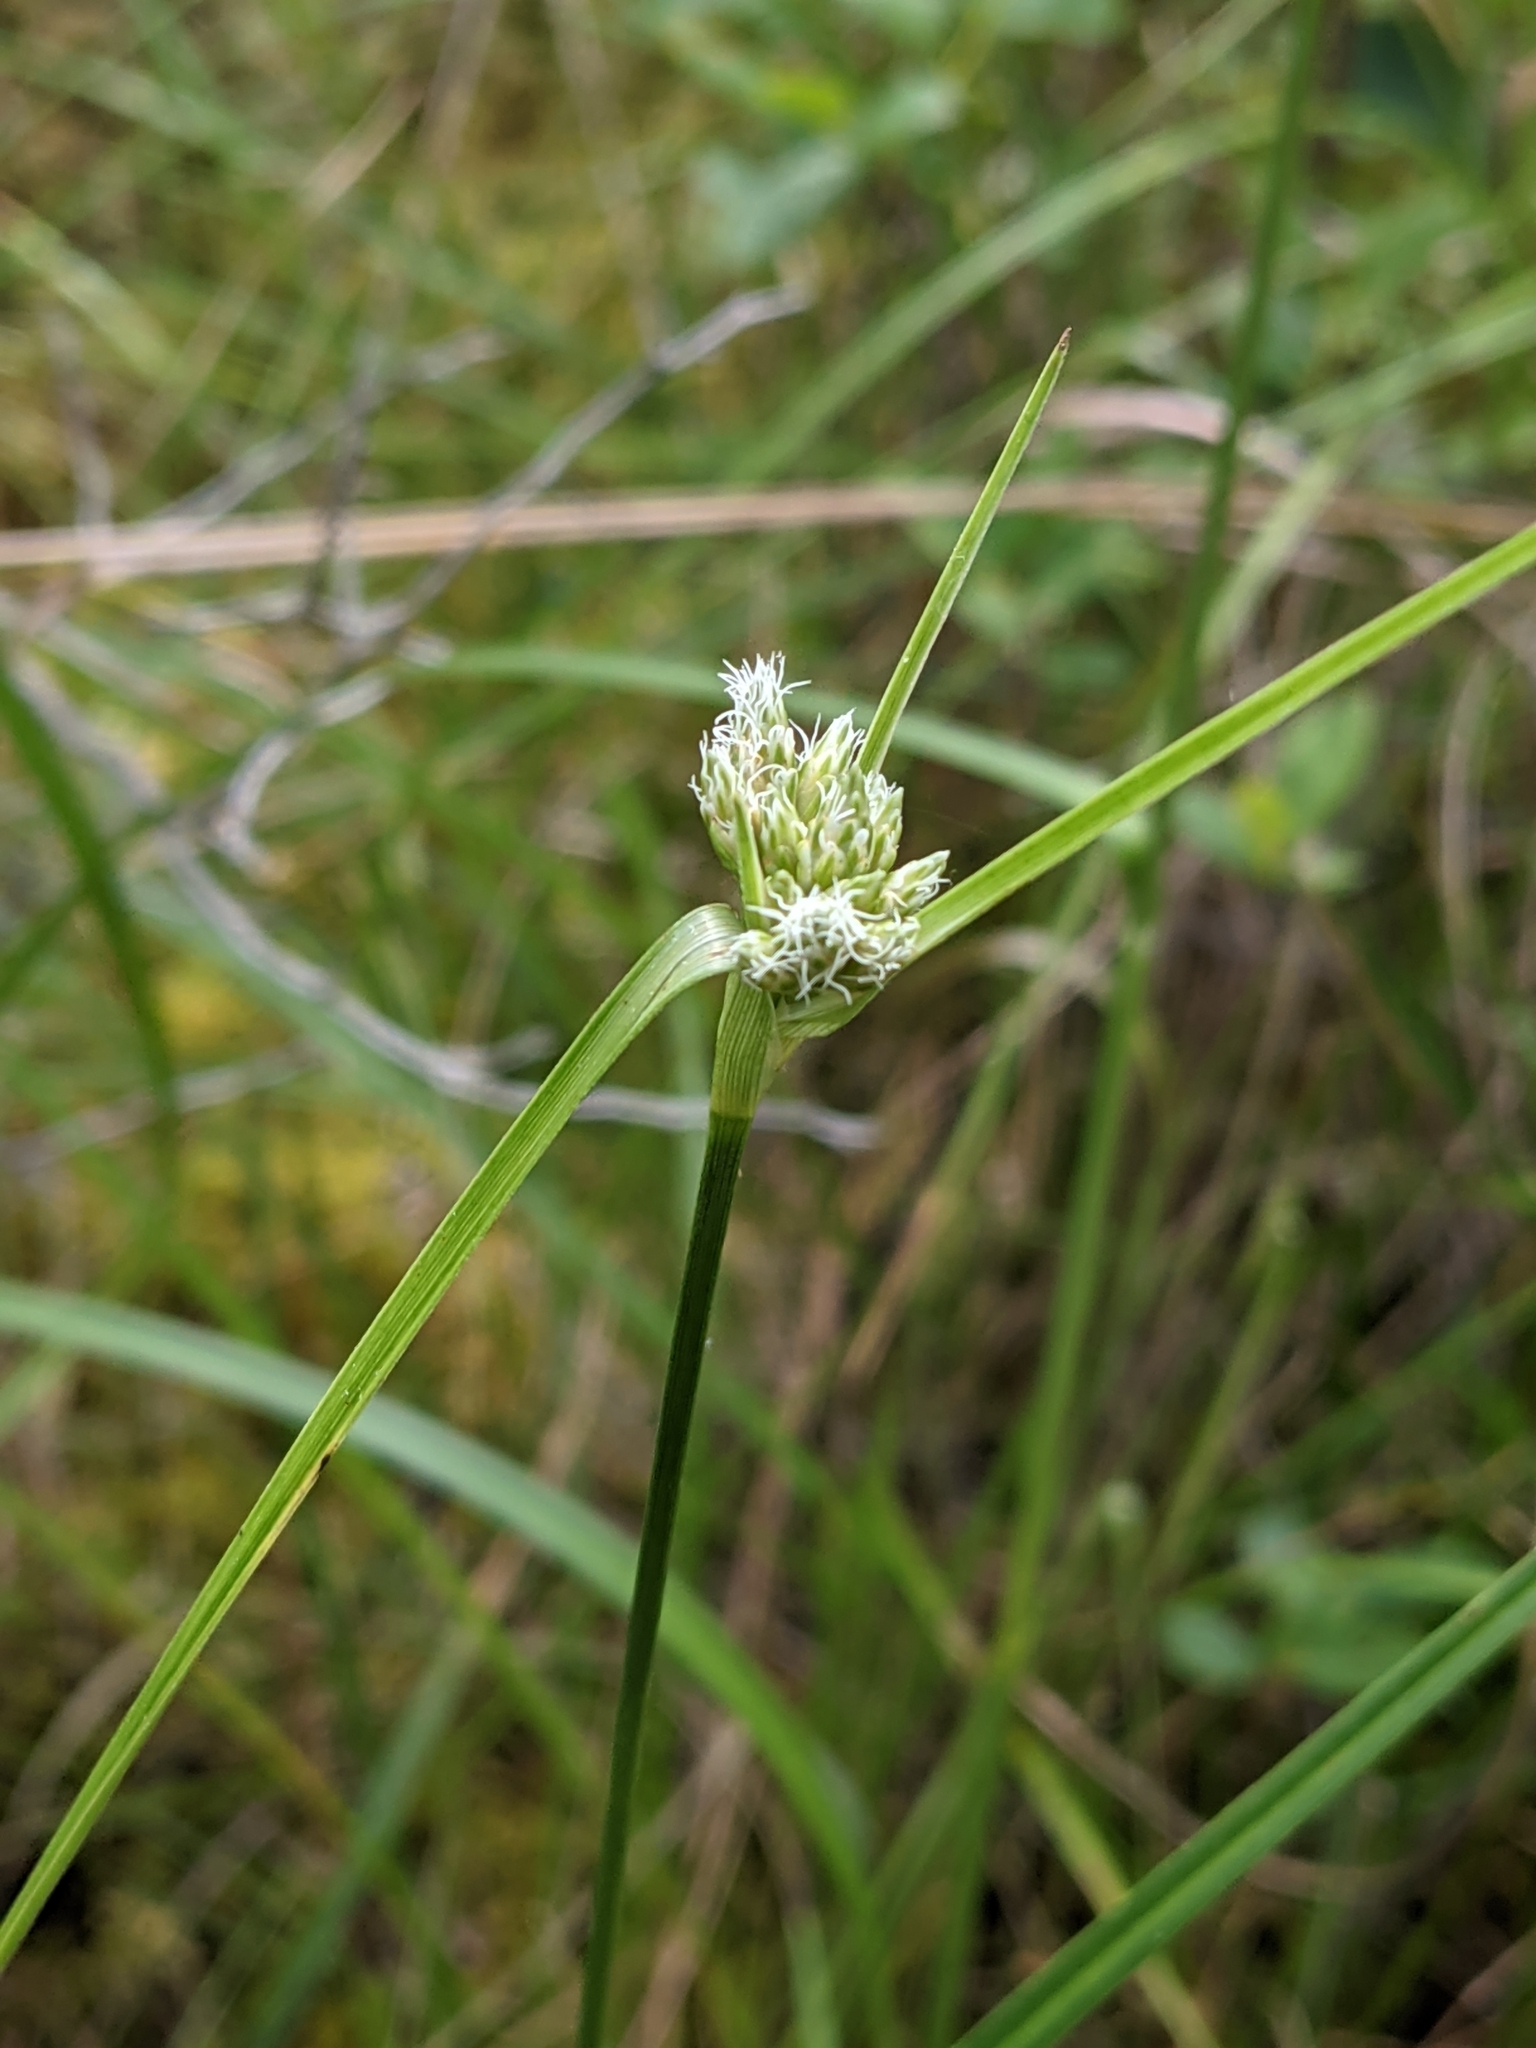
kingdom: Plantae
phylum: Tracheophyta
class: Liliopsida
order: Poales
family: Cyperaceae
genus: Eriophorum
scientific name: Eriophorum virginicum
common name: Tawny cottongrass
